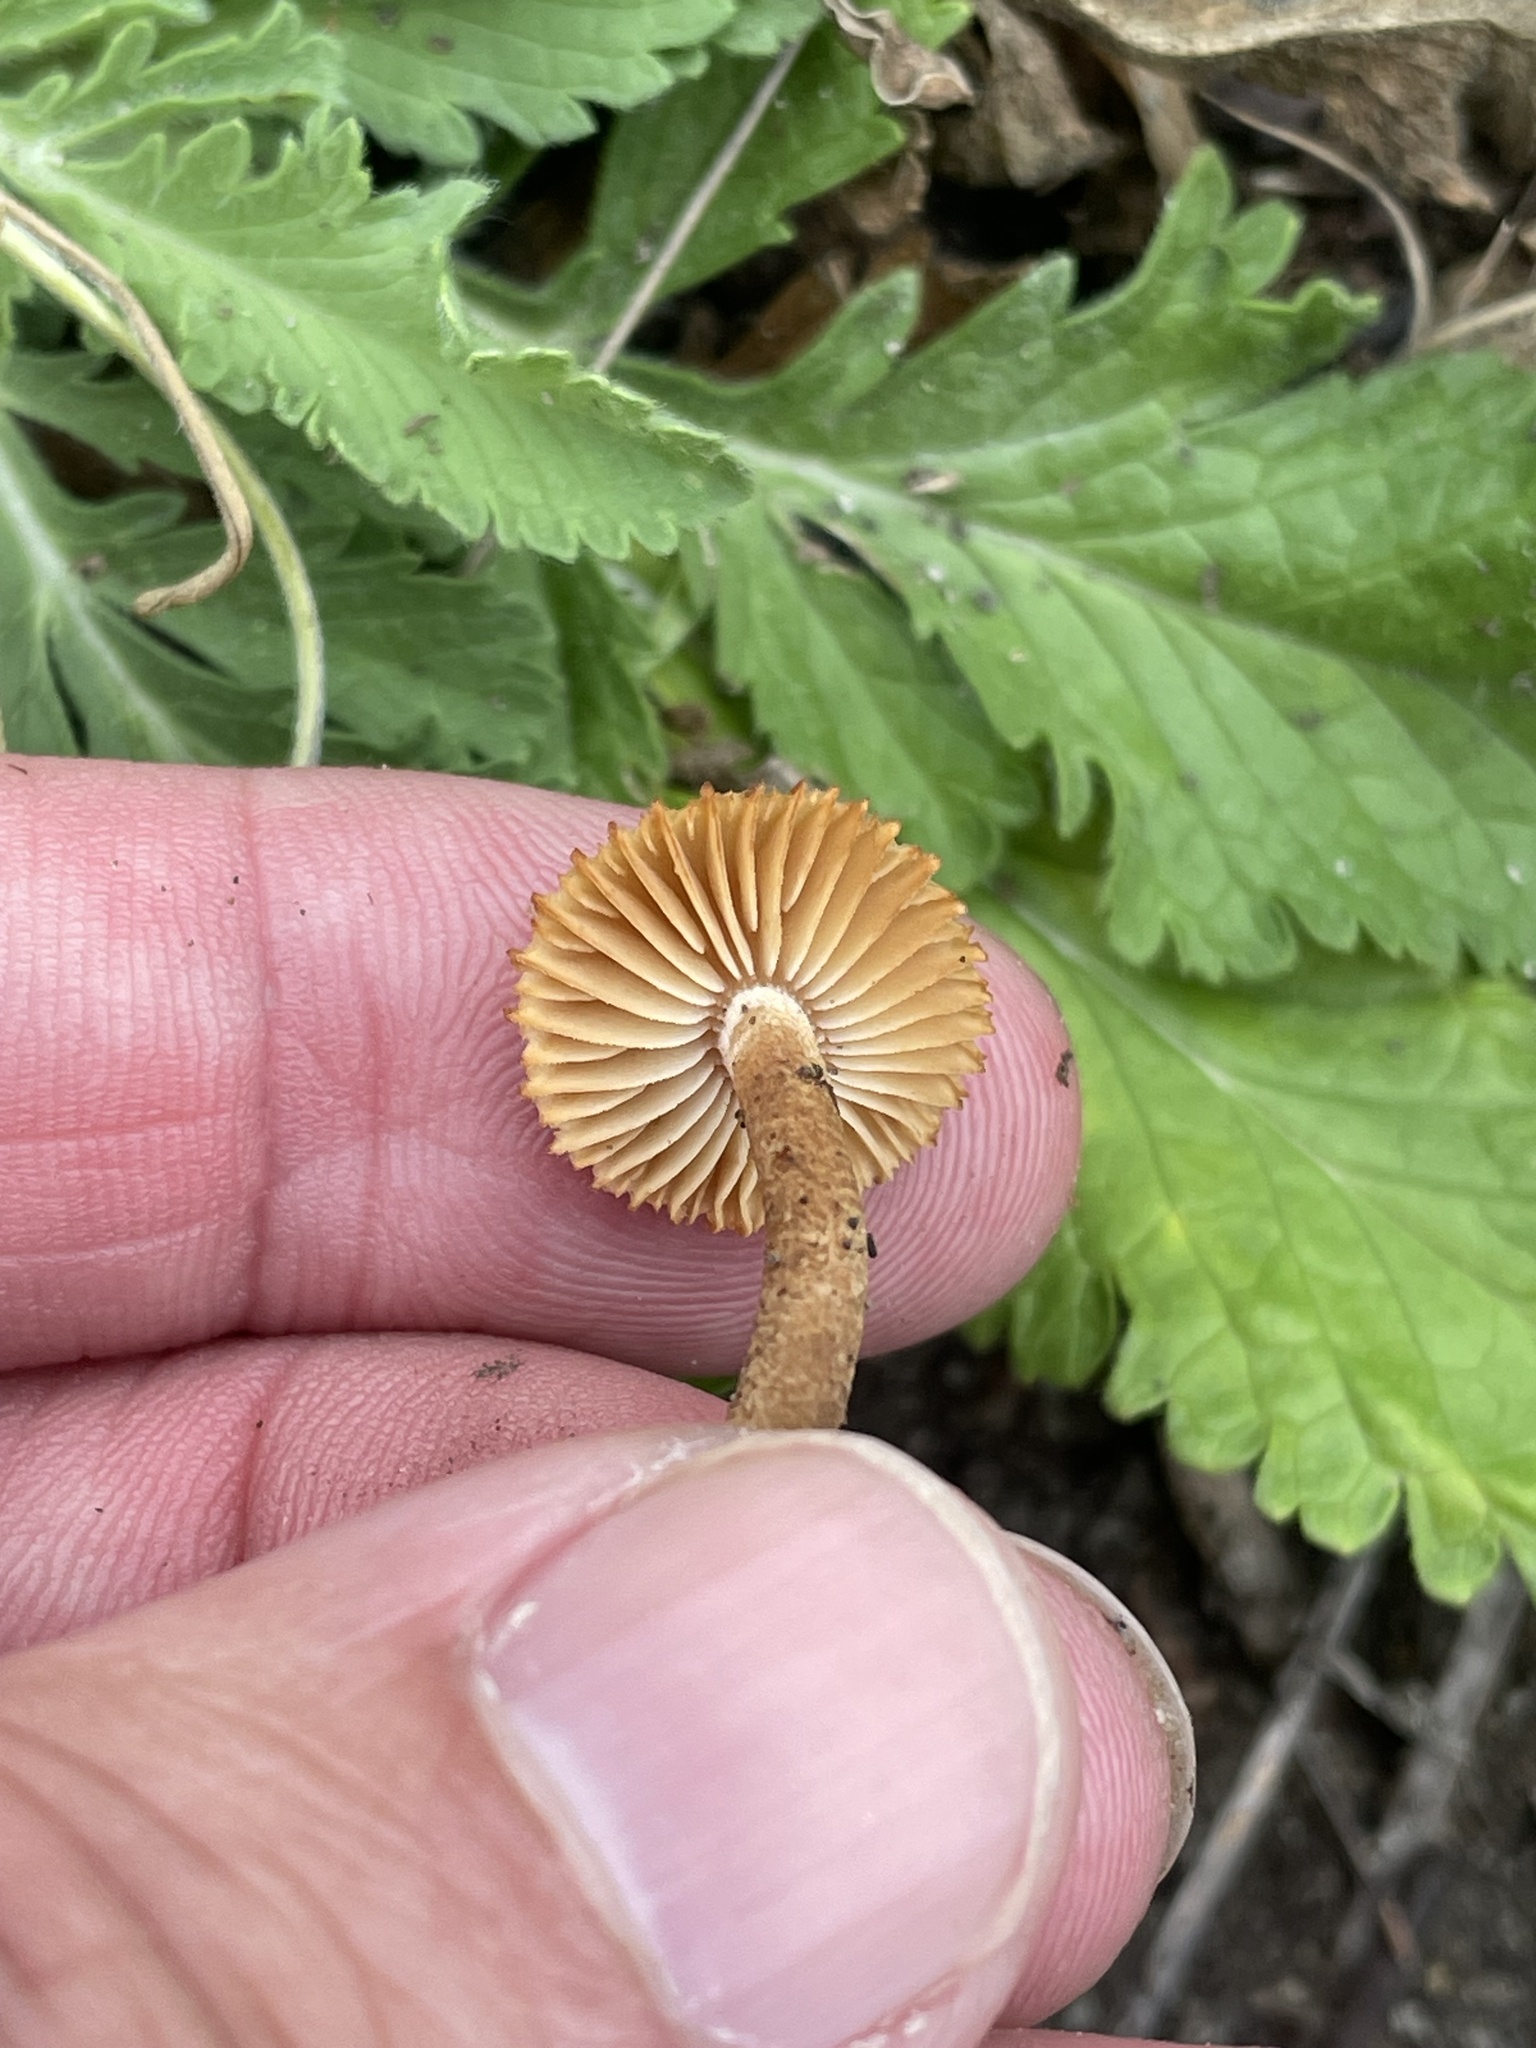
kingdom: Fungi
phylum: Basidiomycota
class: Agaricomycetes
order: Gloeophyllales
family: Gloeophyllaceae
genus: Heliocybe
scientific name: Heliocybe sulcata
